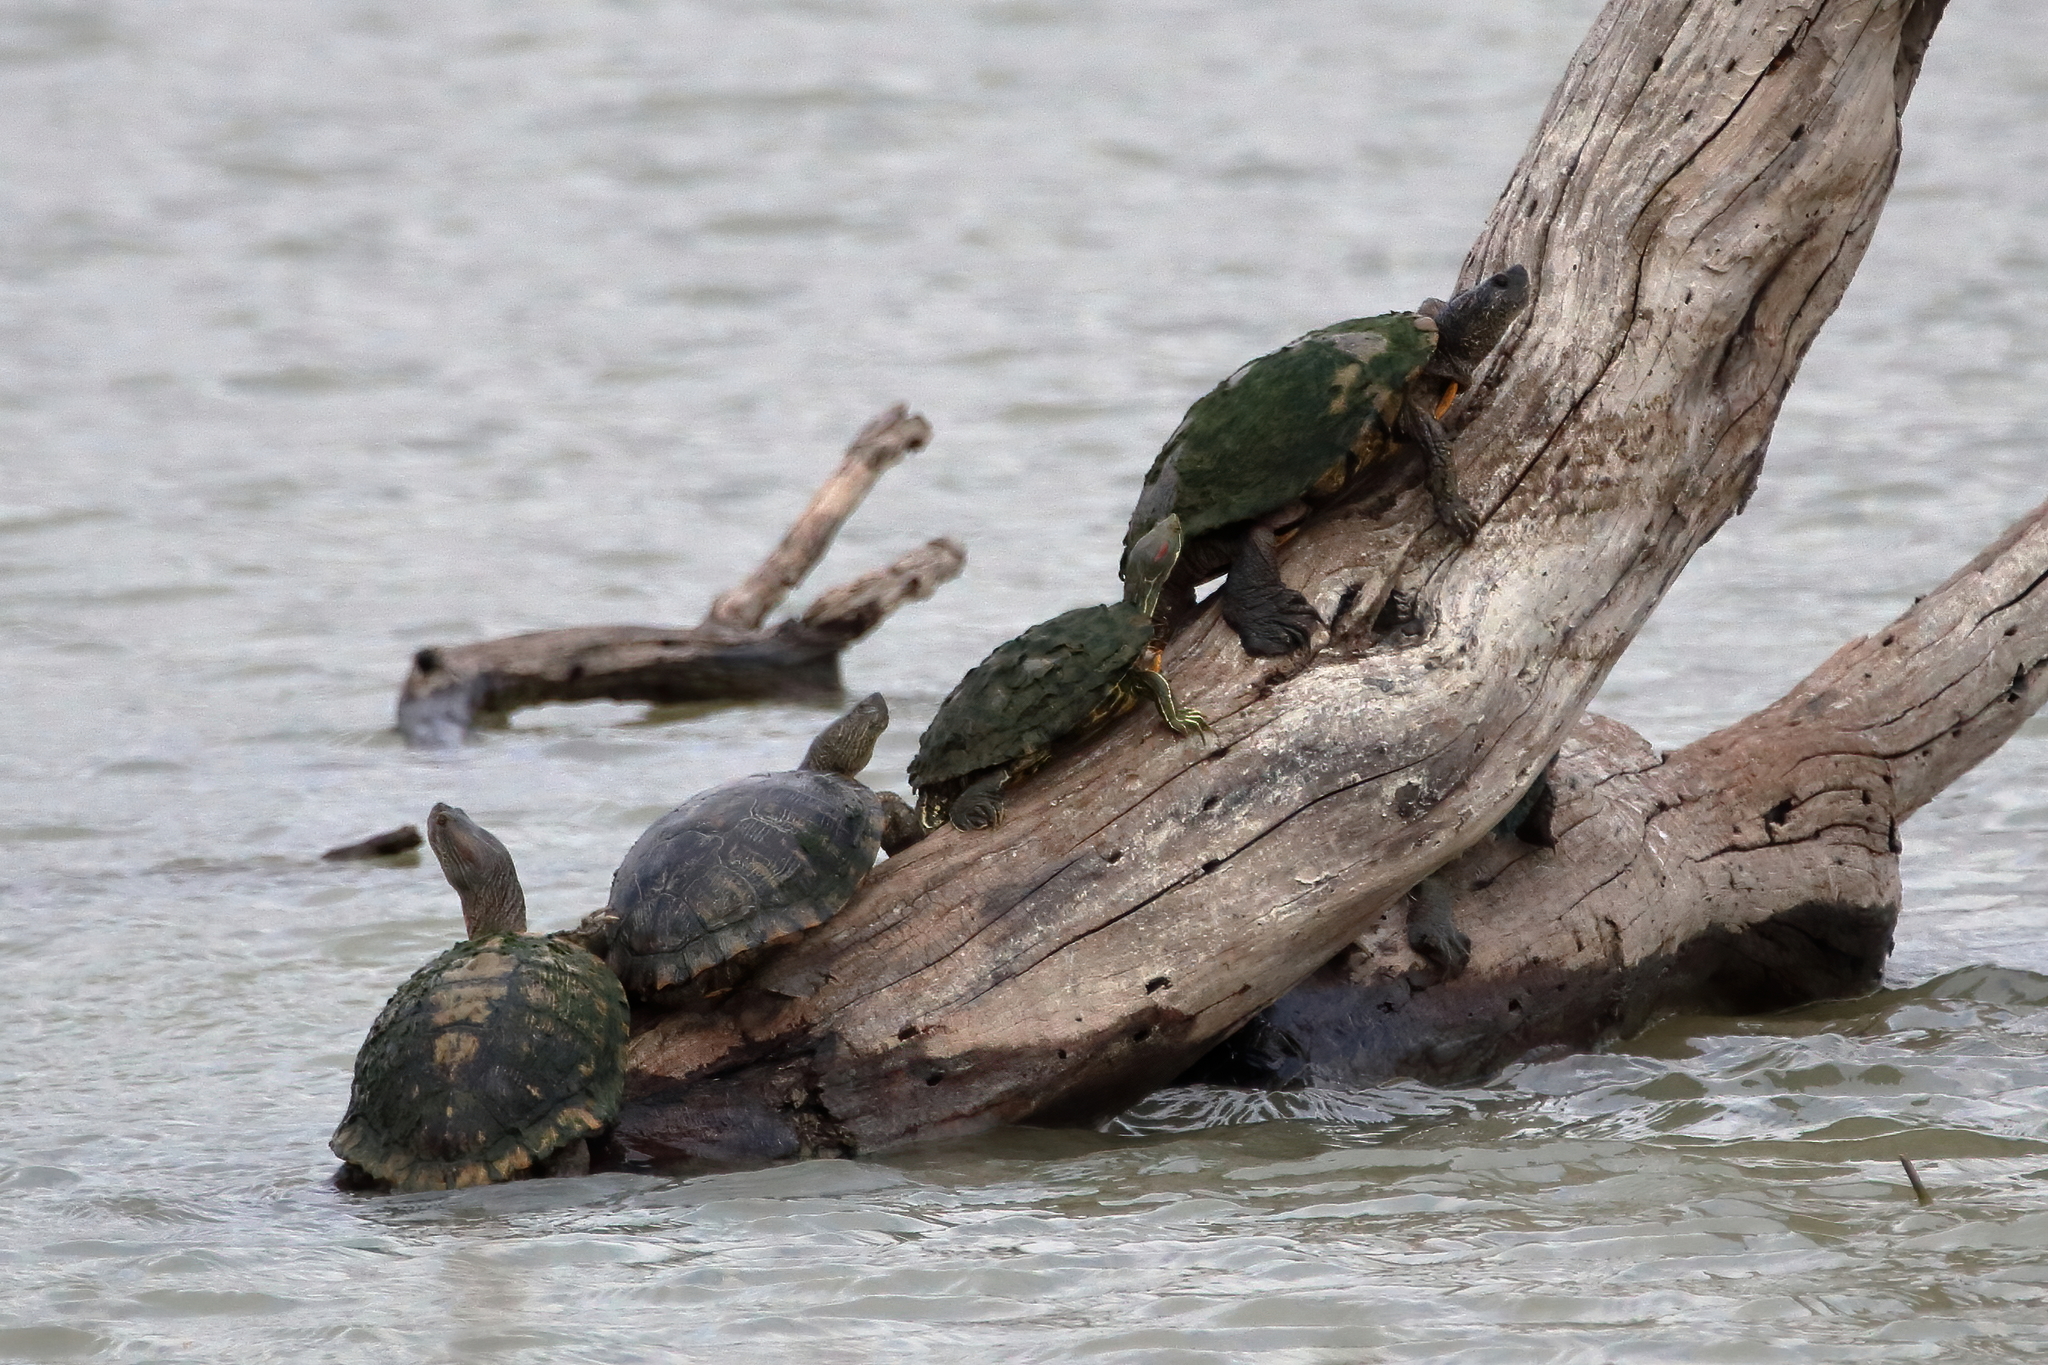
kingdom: Animalia
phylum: Chordata
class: Testudines
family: Emydidae
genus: Trachemys
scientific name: Trachemys scripta
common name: Slider
